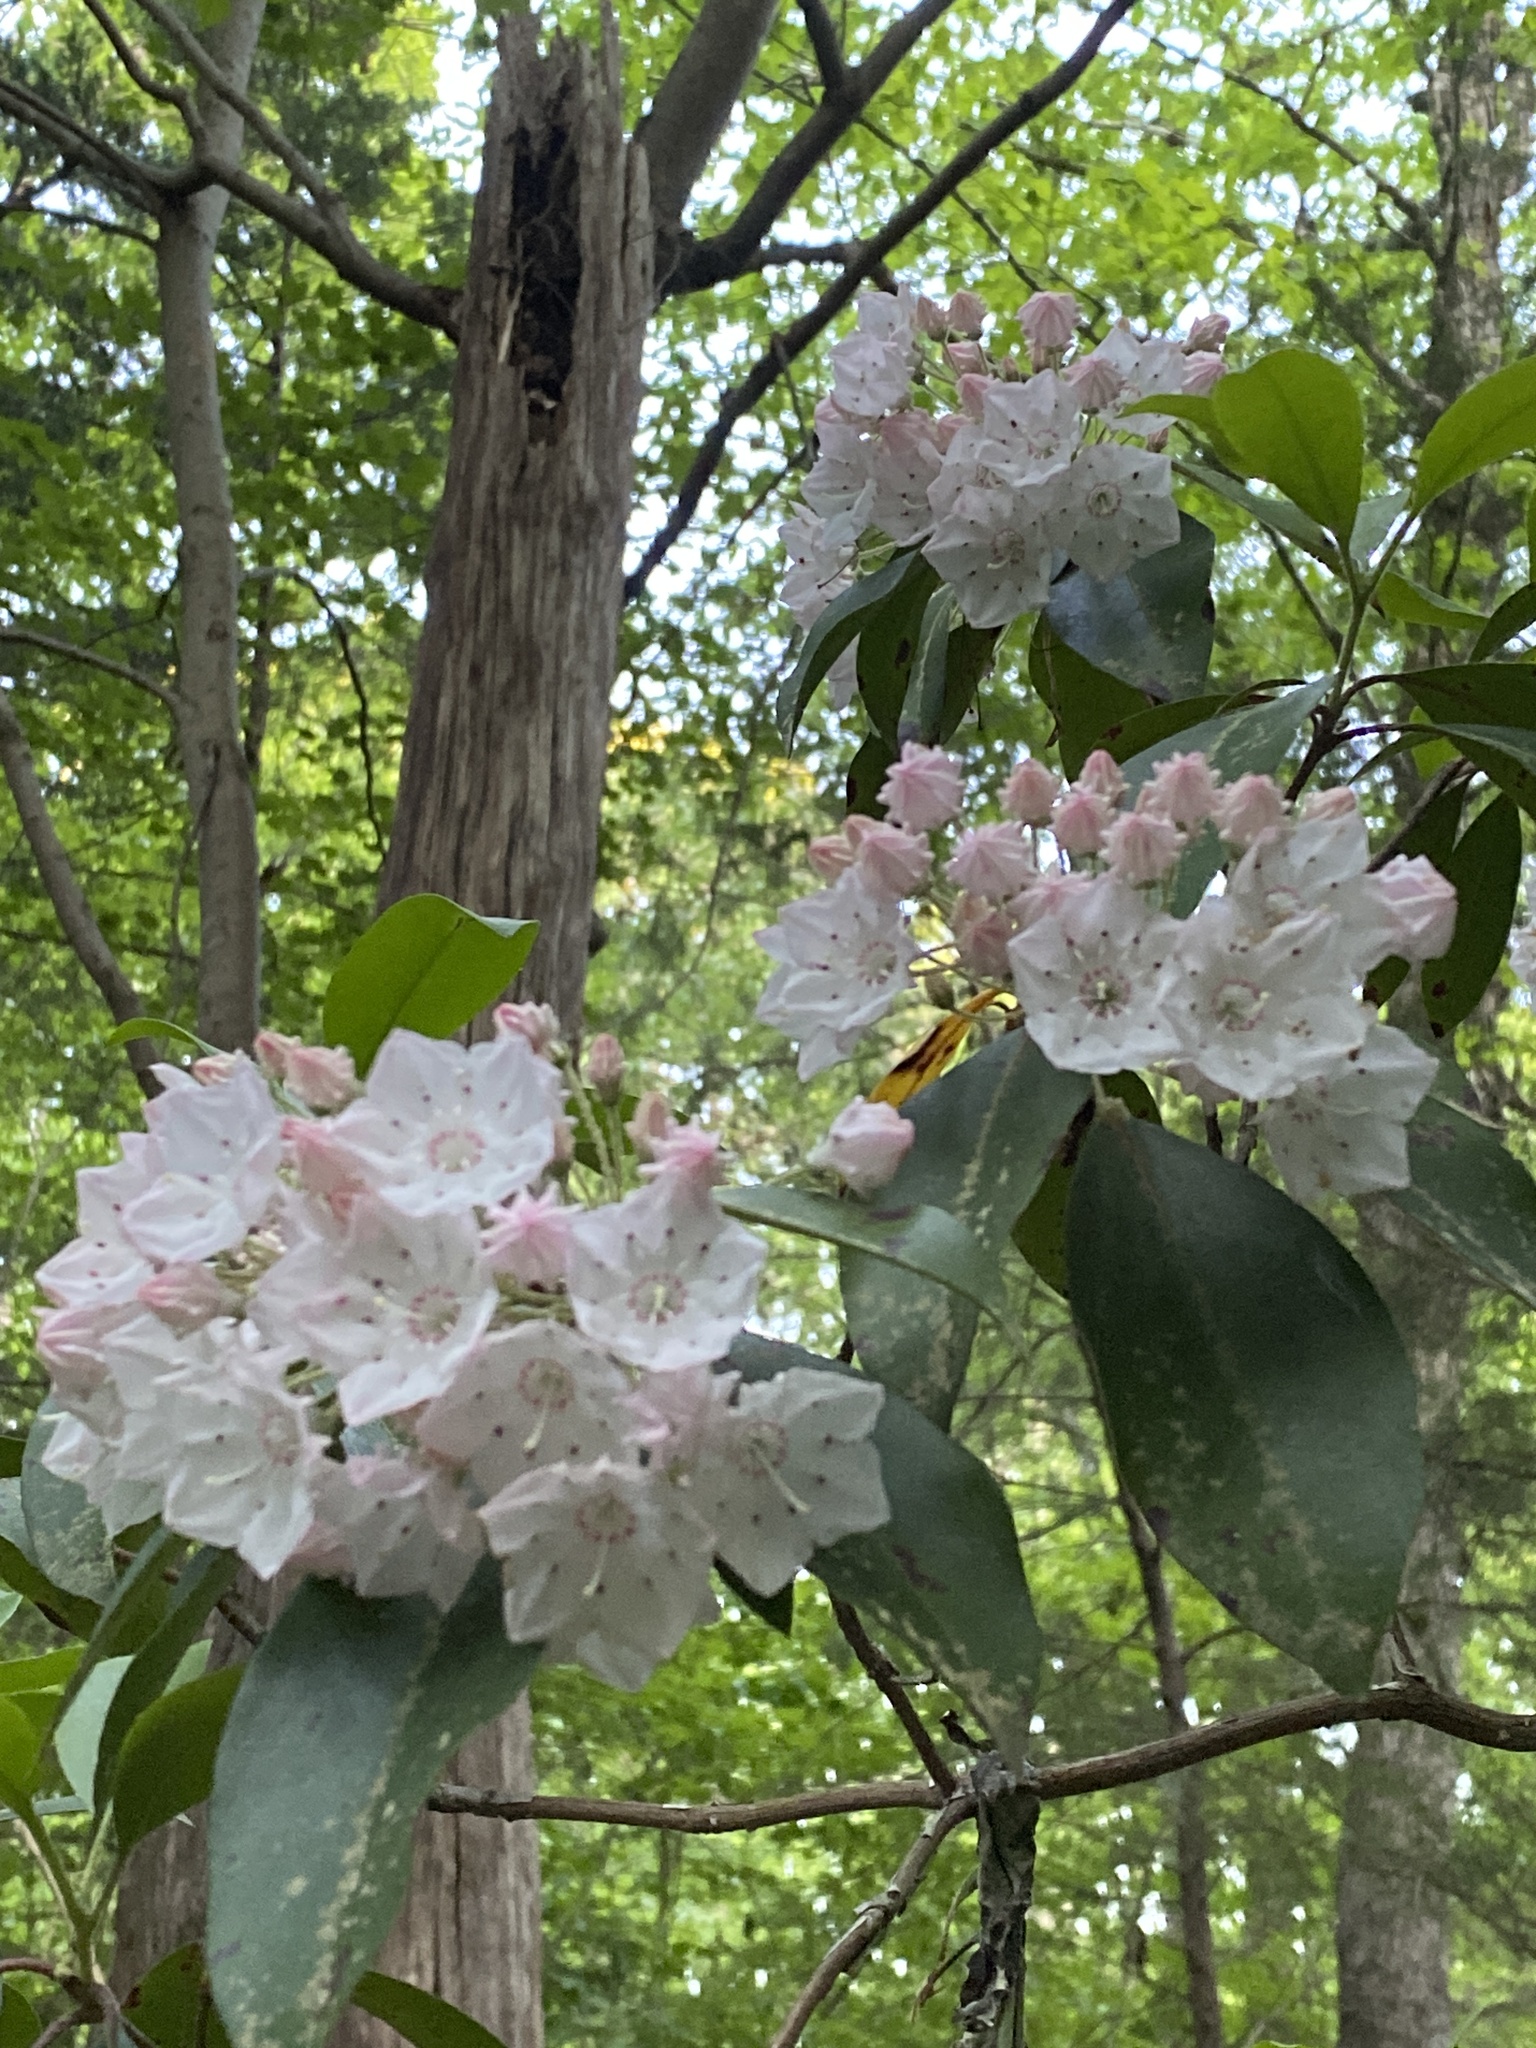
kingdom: Plantae
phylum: Tracheophyta
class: Magnoliopsida
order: Ericales
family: Ericaceae
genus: Kalmia
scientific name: Kalmia latifolia
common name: Mountain-laurel
